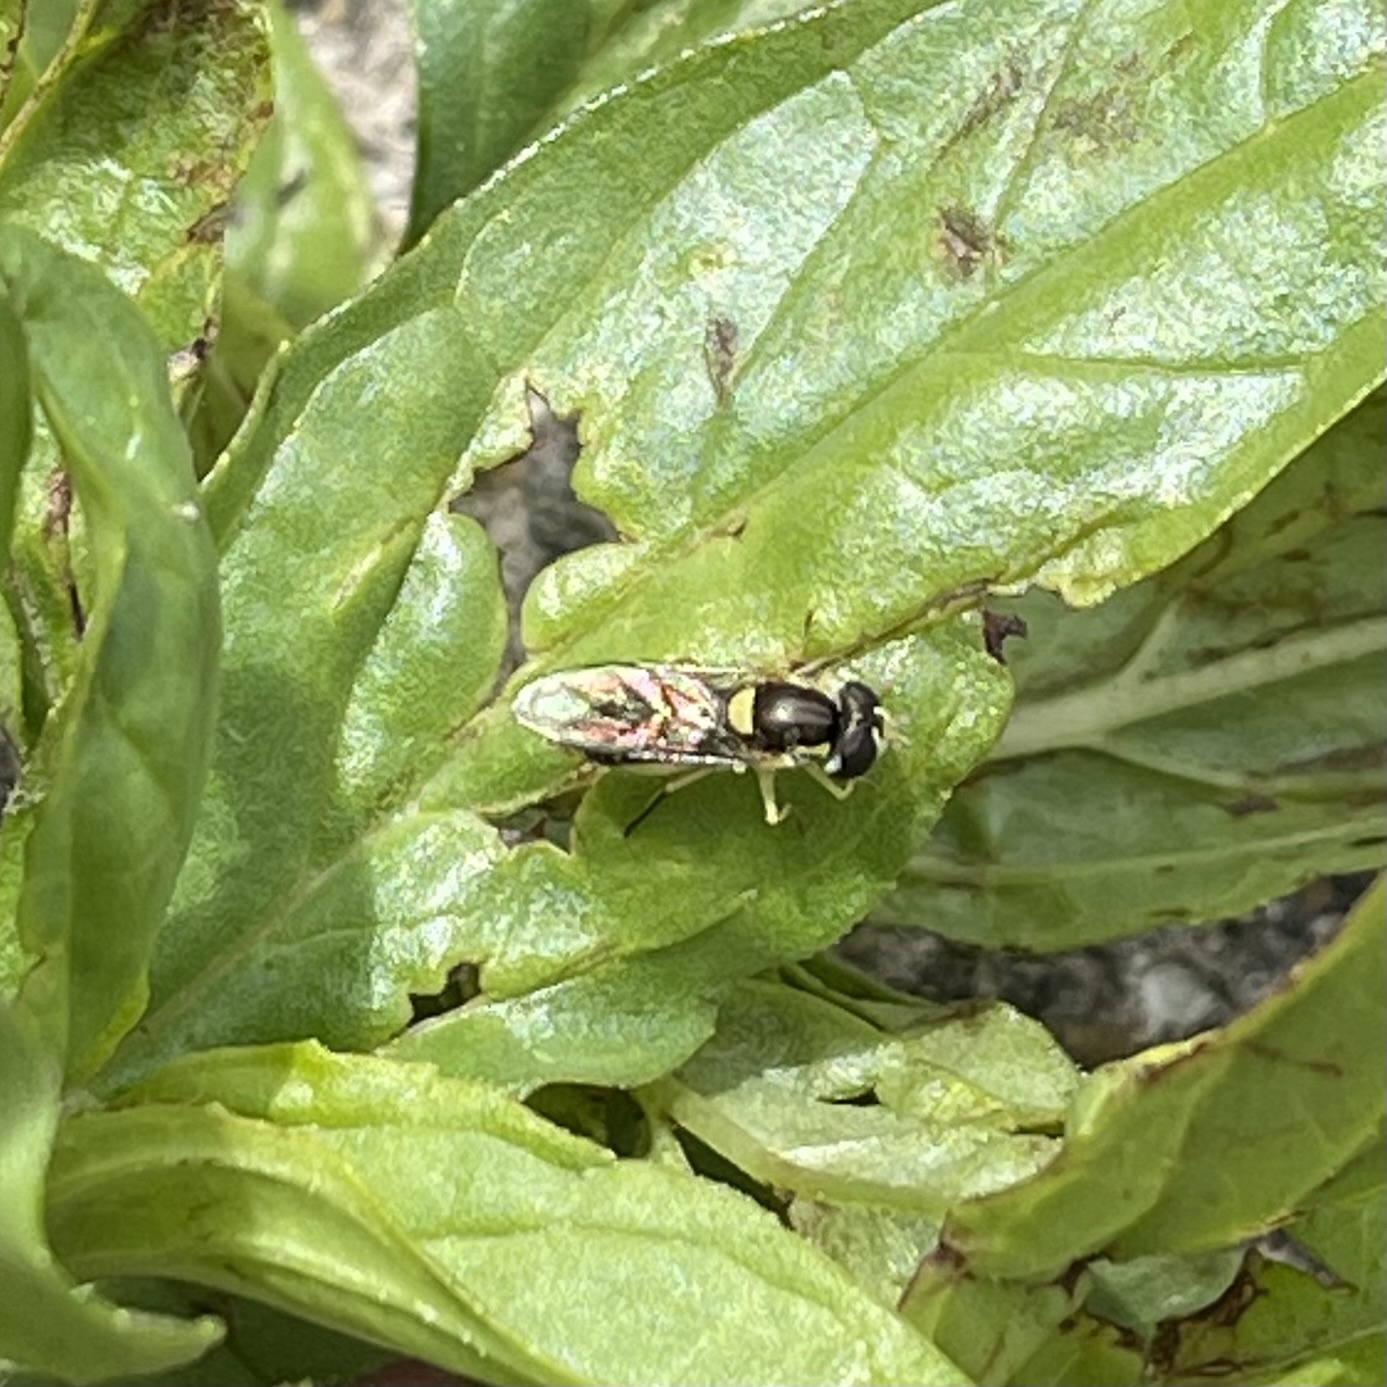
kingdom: Animalia
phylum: Arthropoda
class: Insecta
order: Diptera
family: Syrphidae
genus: Sphaerophoria
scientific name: Sphaerophoria sulphuripes
